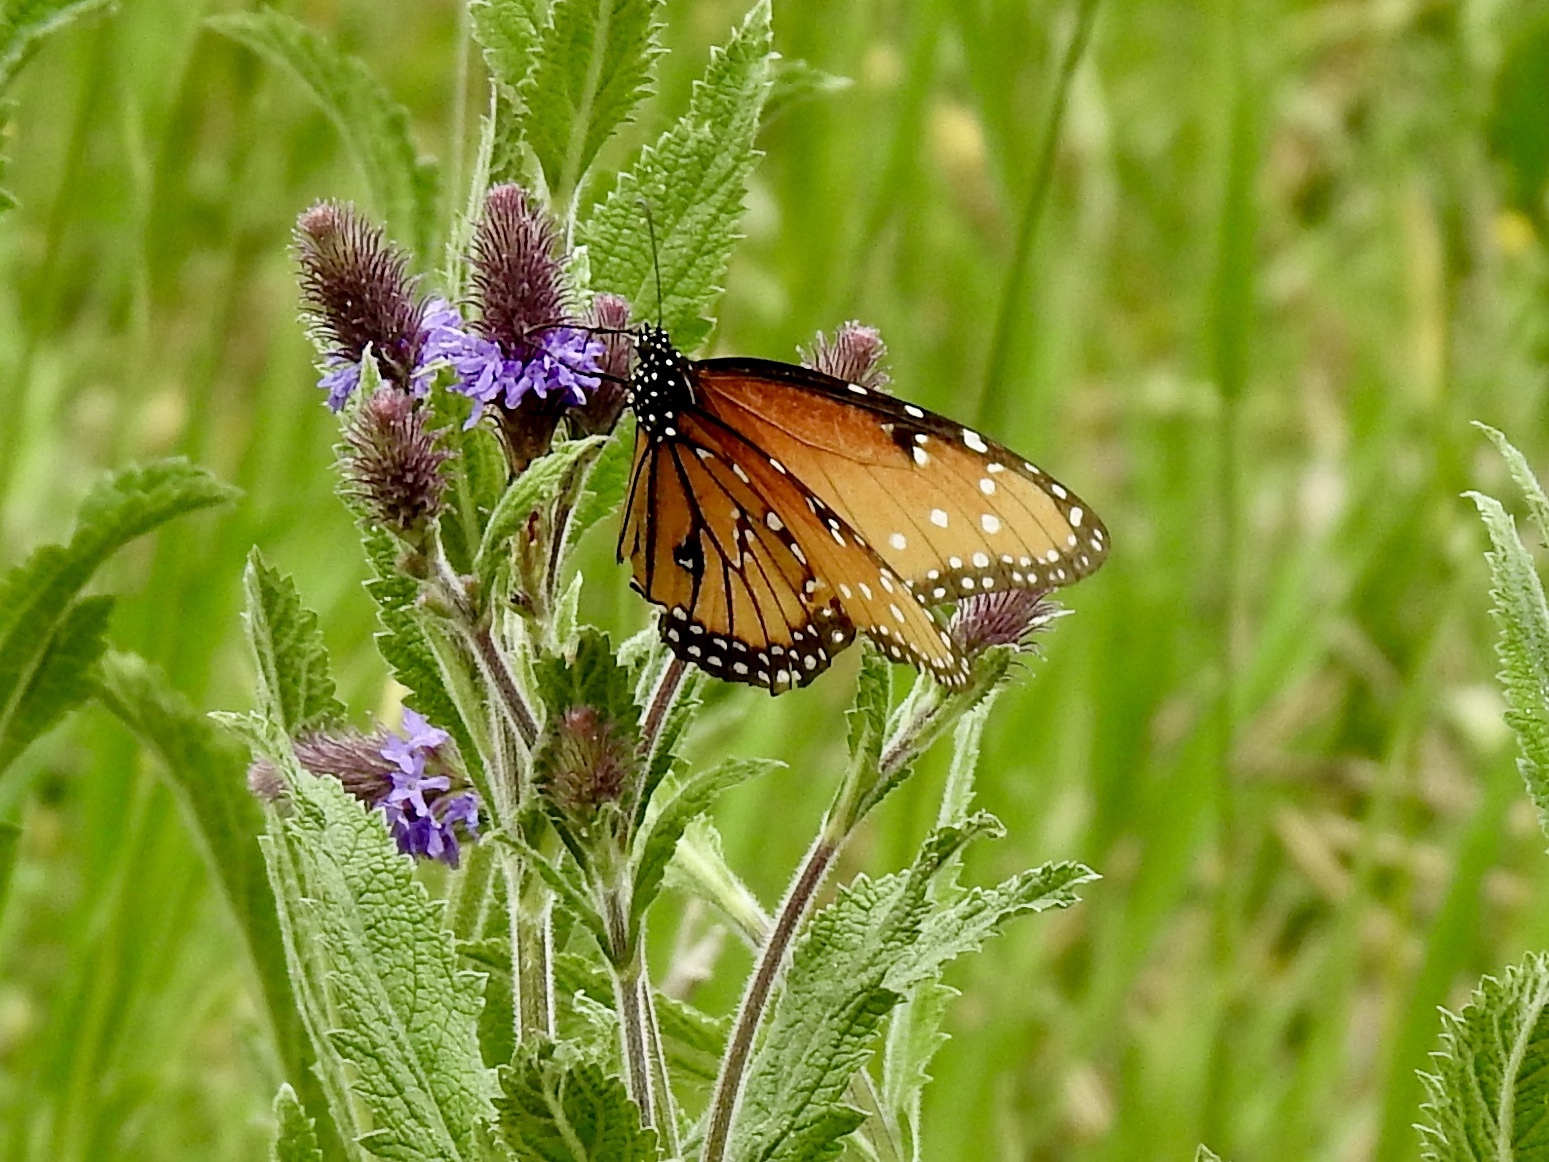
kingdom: Animalia
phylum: Arthropoda
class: Insecta
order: Lepidoptera
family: Nymphalidae
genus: Danaus
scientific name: Danaus gilippus
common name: Queen
